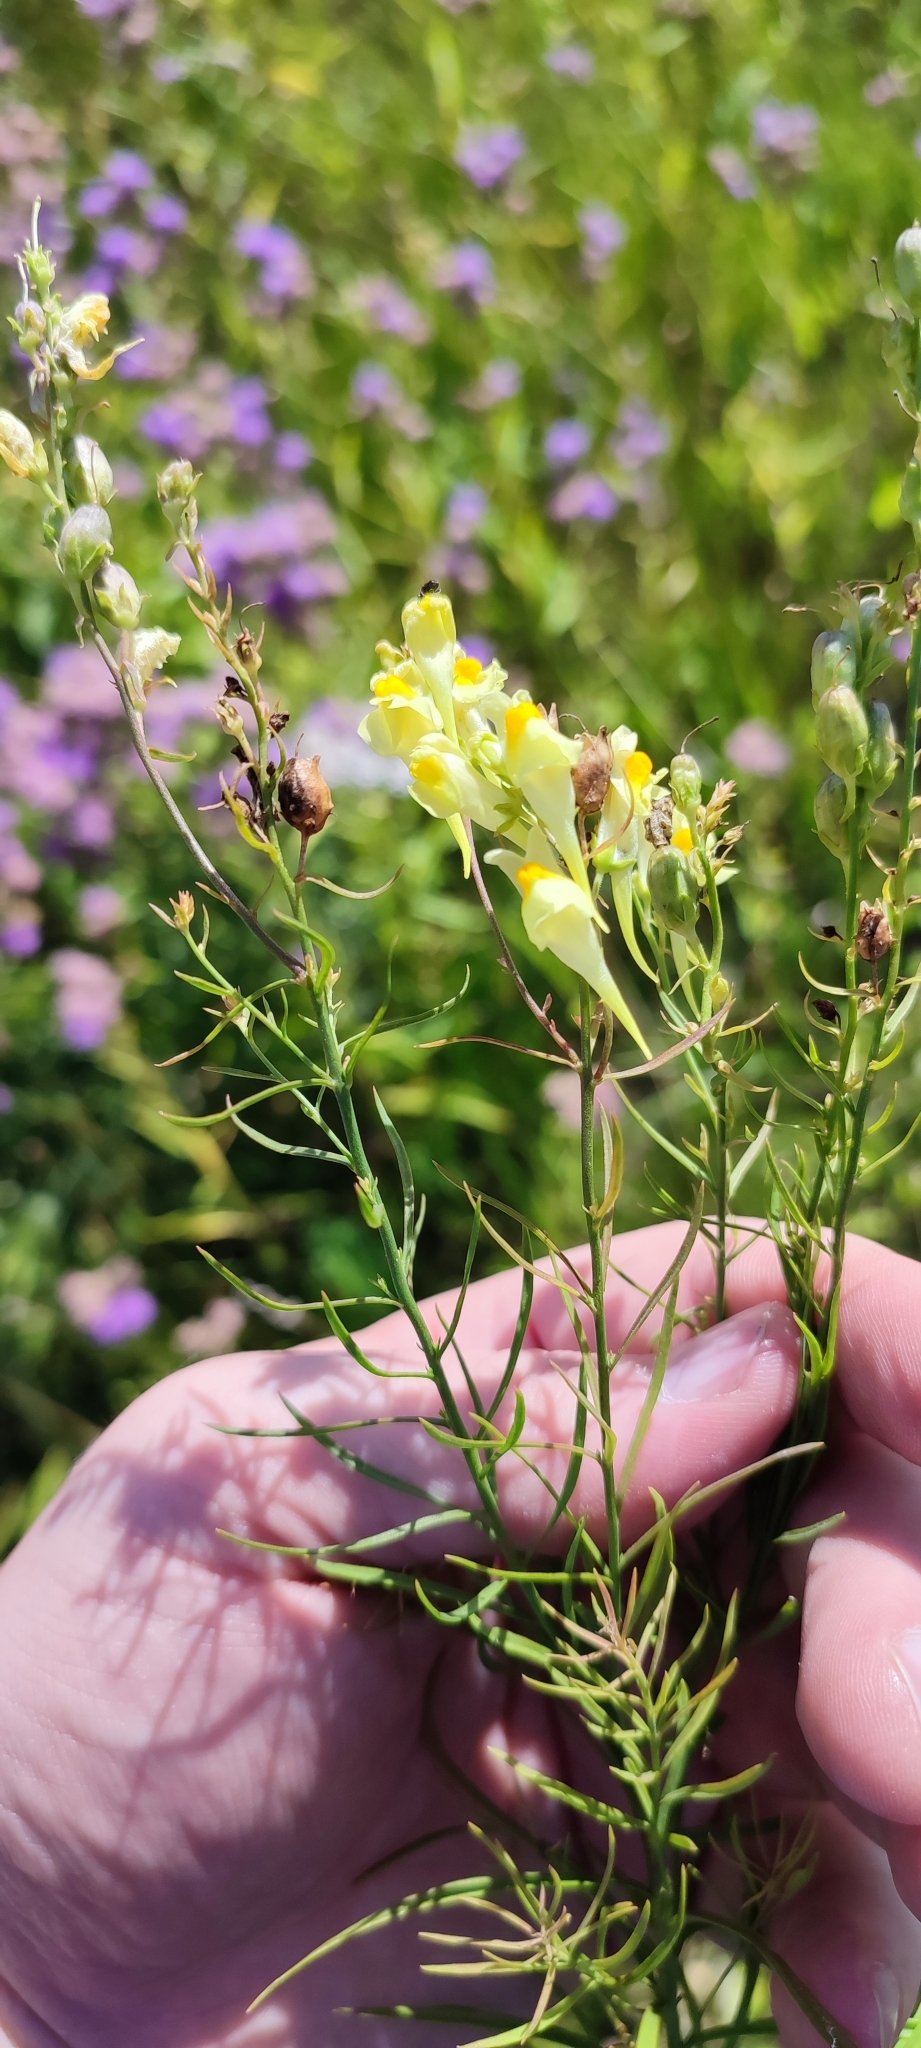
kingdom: Plantae
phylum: Tracheophyta
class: Magnoliopsida
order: Lamiales
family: Plantaginaceae
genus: Linaria
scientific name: Linaria vulgaris
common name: Butter and eggs
